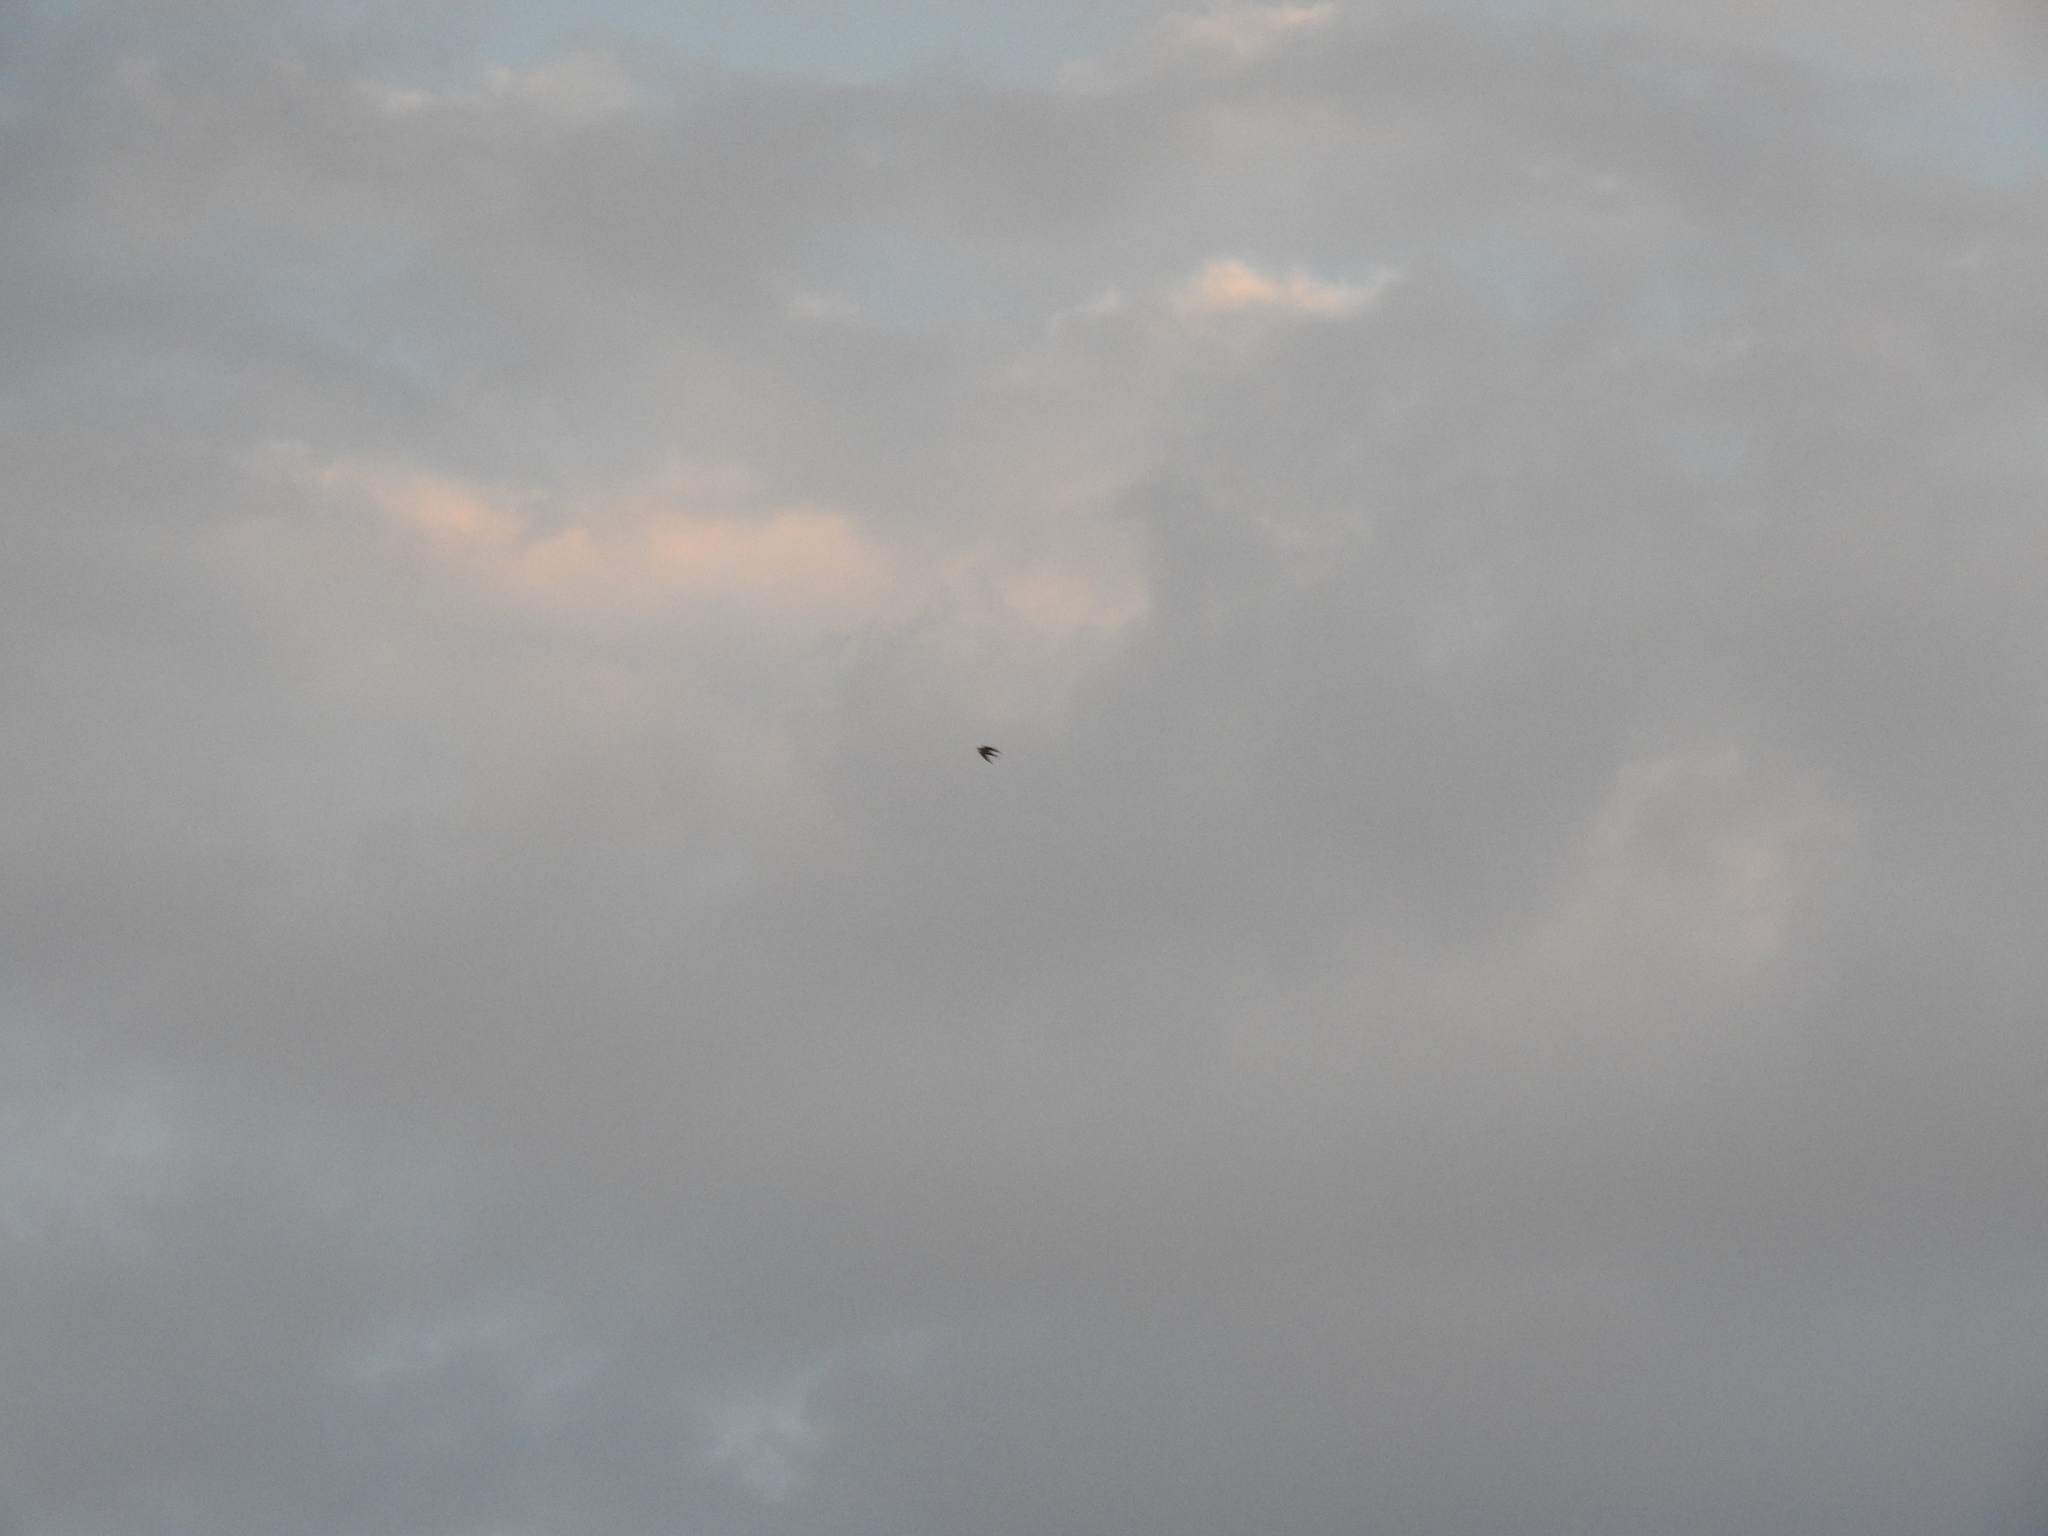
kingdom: Animalia
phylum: Chordata
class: Aves
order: Passeriformes
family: Hirundinidae
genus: Hirundo
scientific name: Hirundo rustica
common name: Barn swallow
